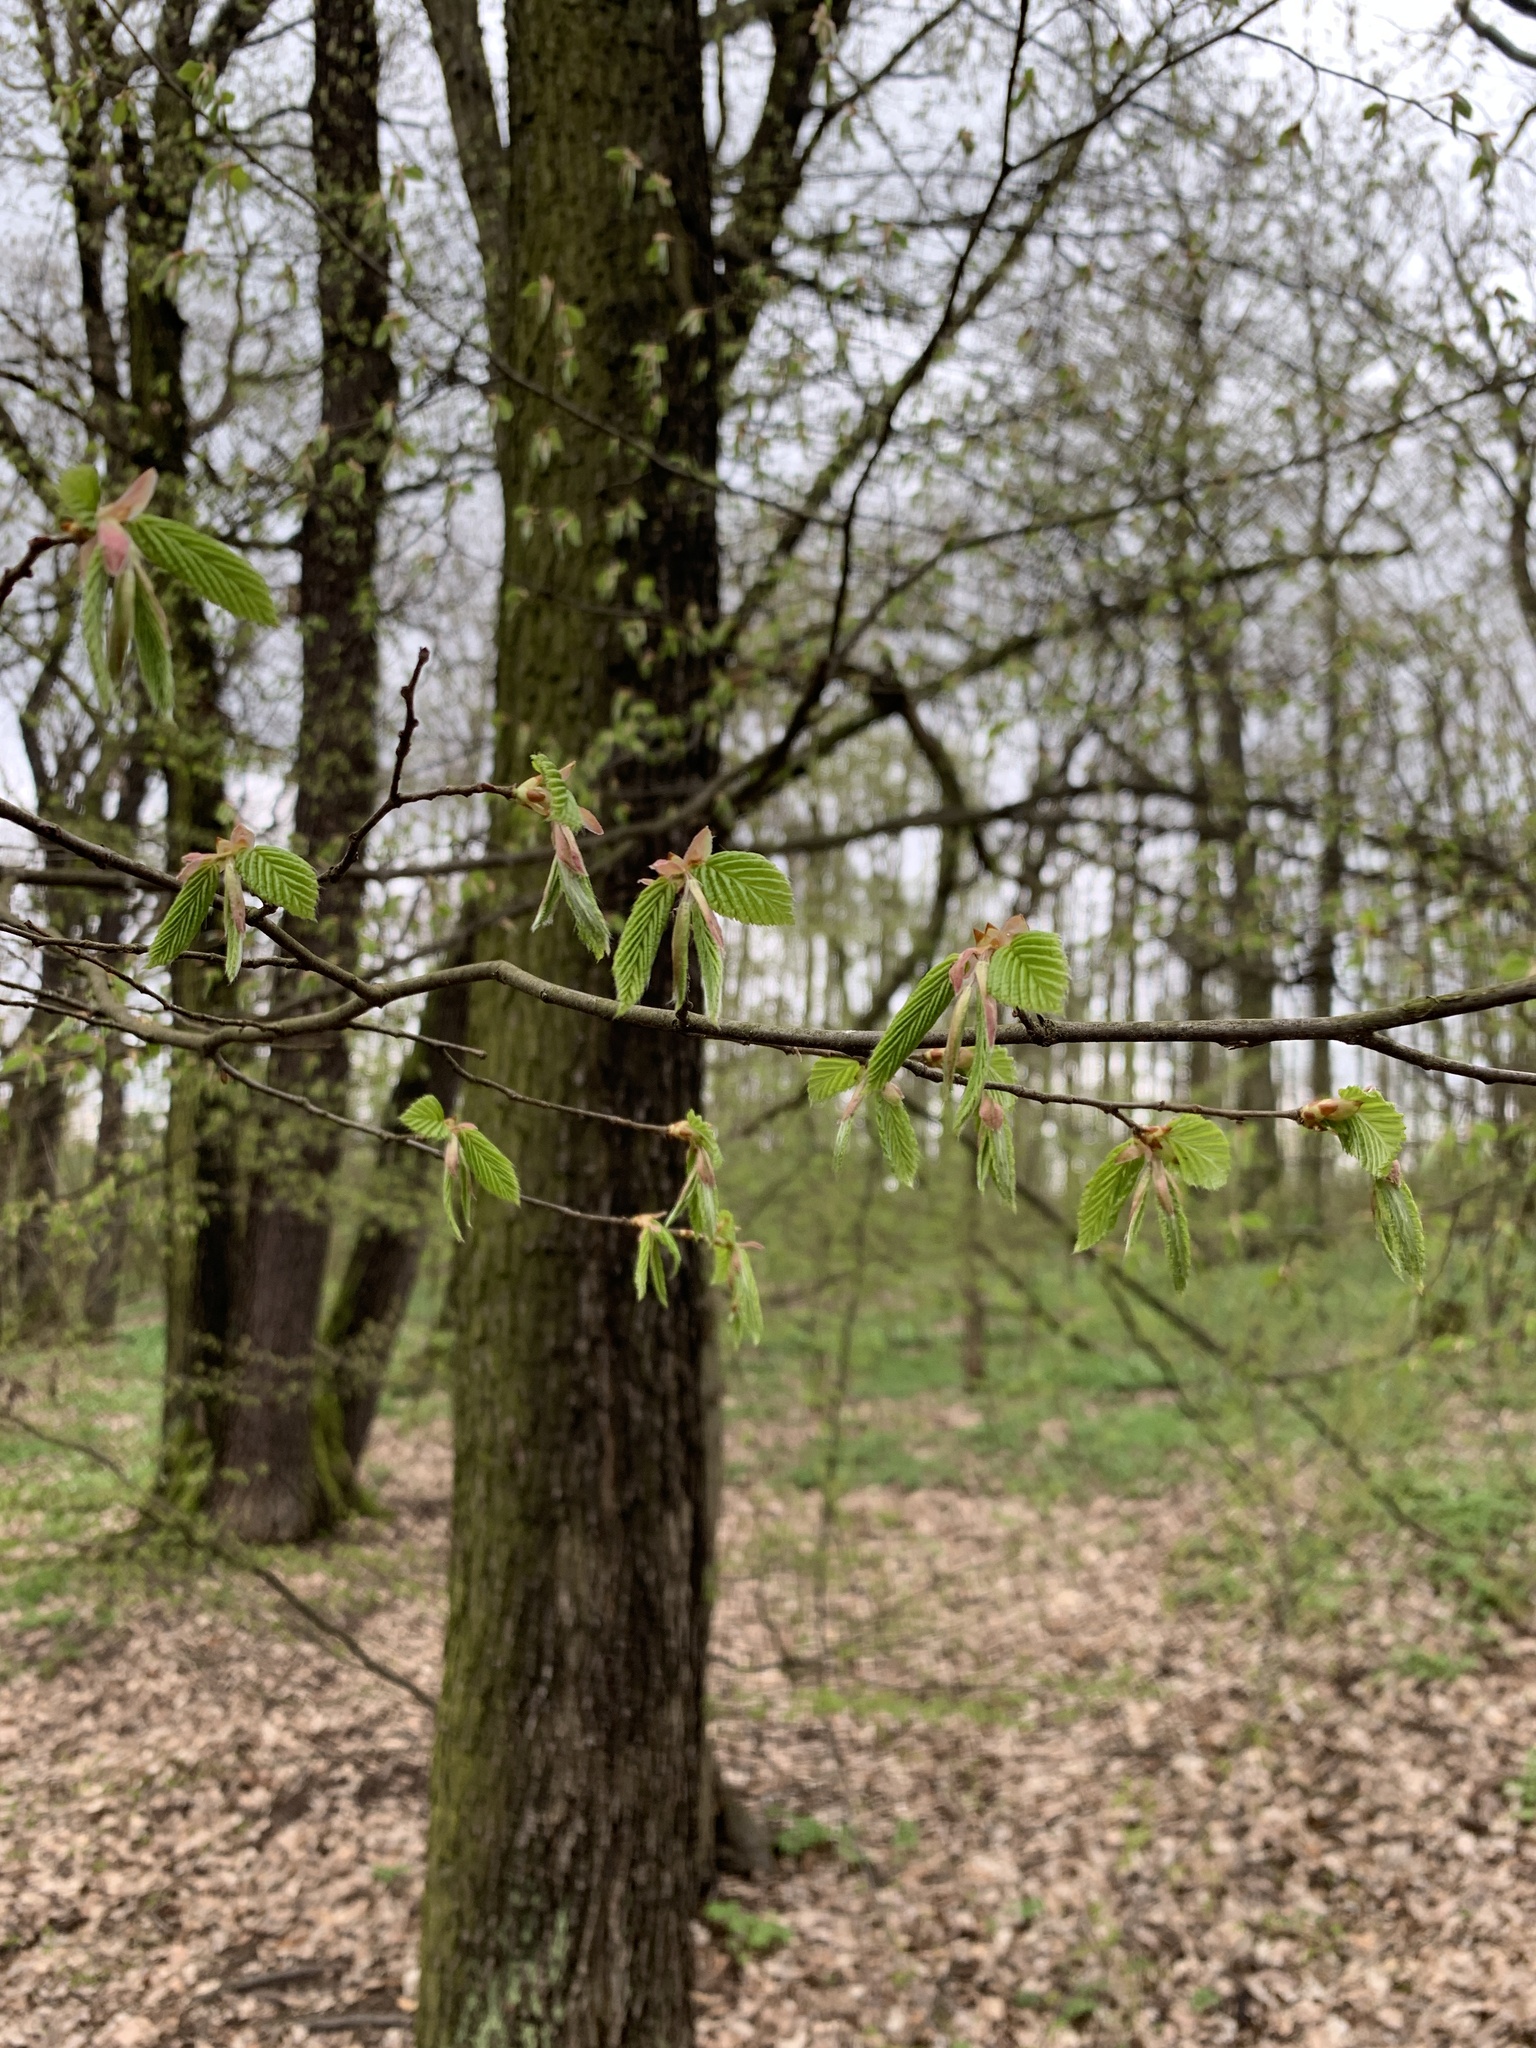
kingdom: Plantae
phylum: Tracheophyta
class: Magnoliopsida
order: Fagales
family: Betulaceae
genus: Carpinus
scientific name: Carpinus betulus
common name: Hornbeam
